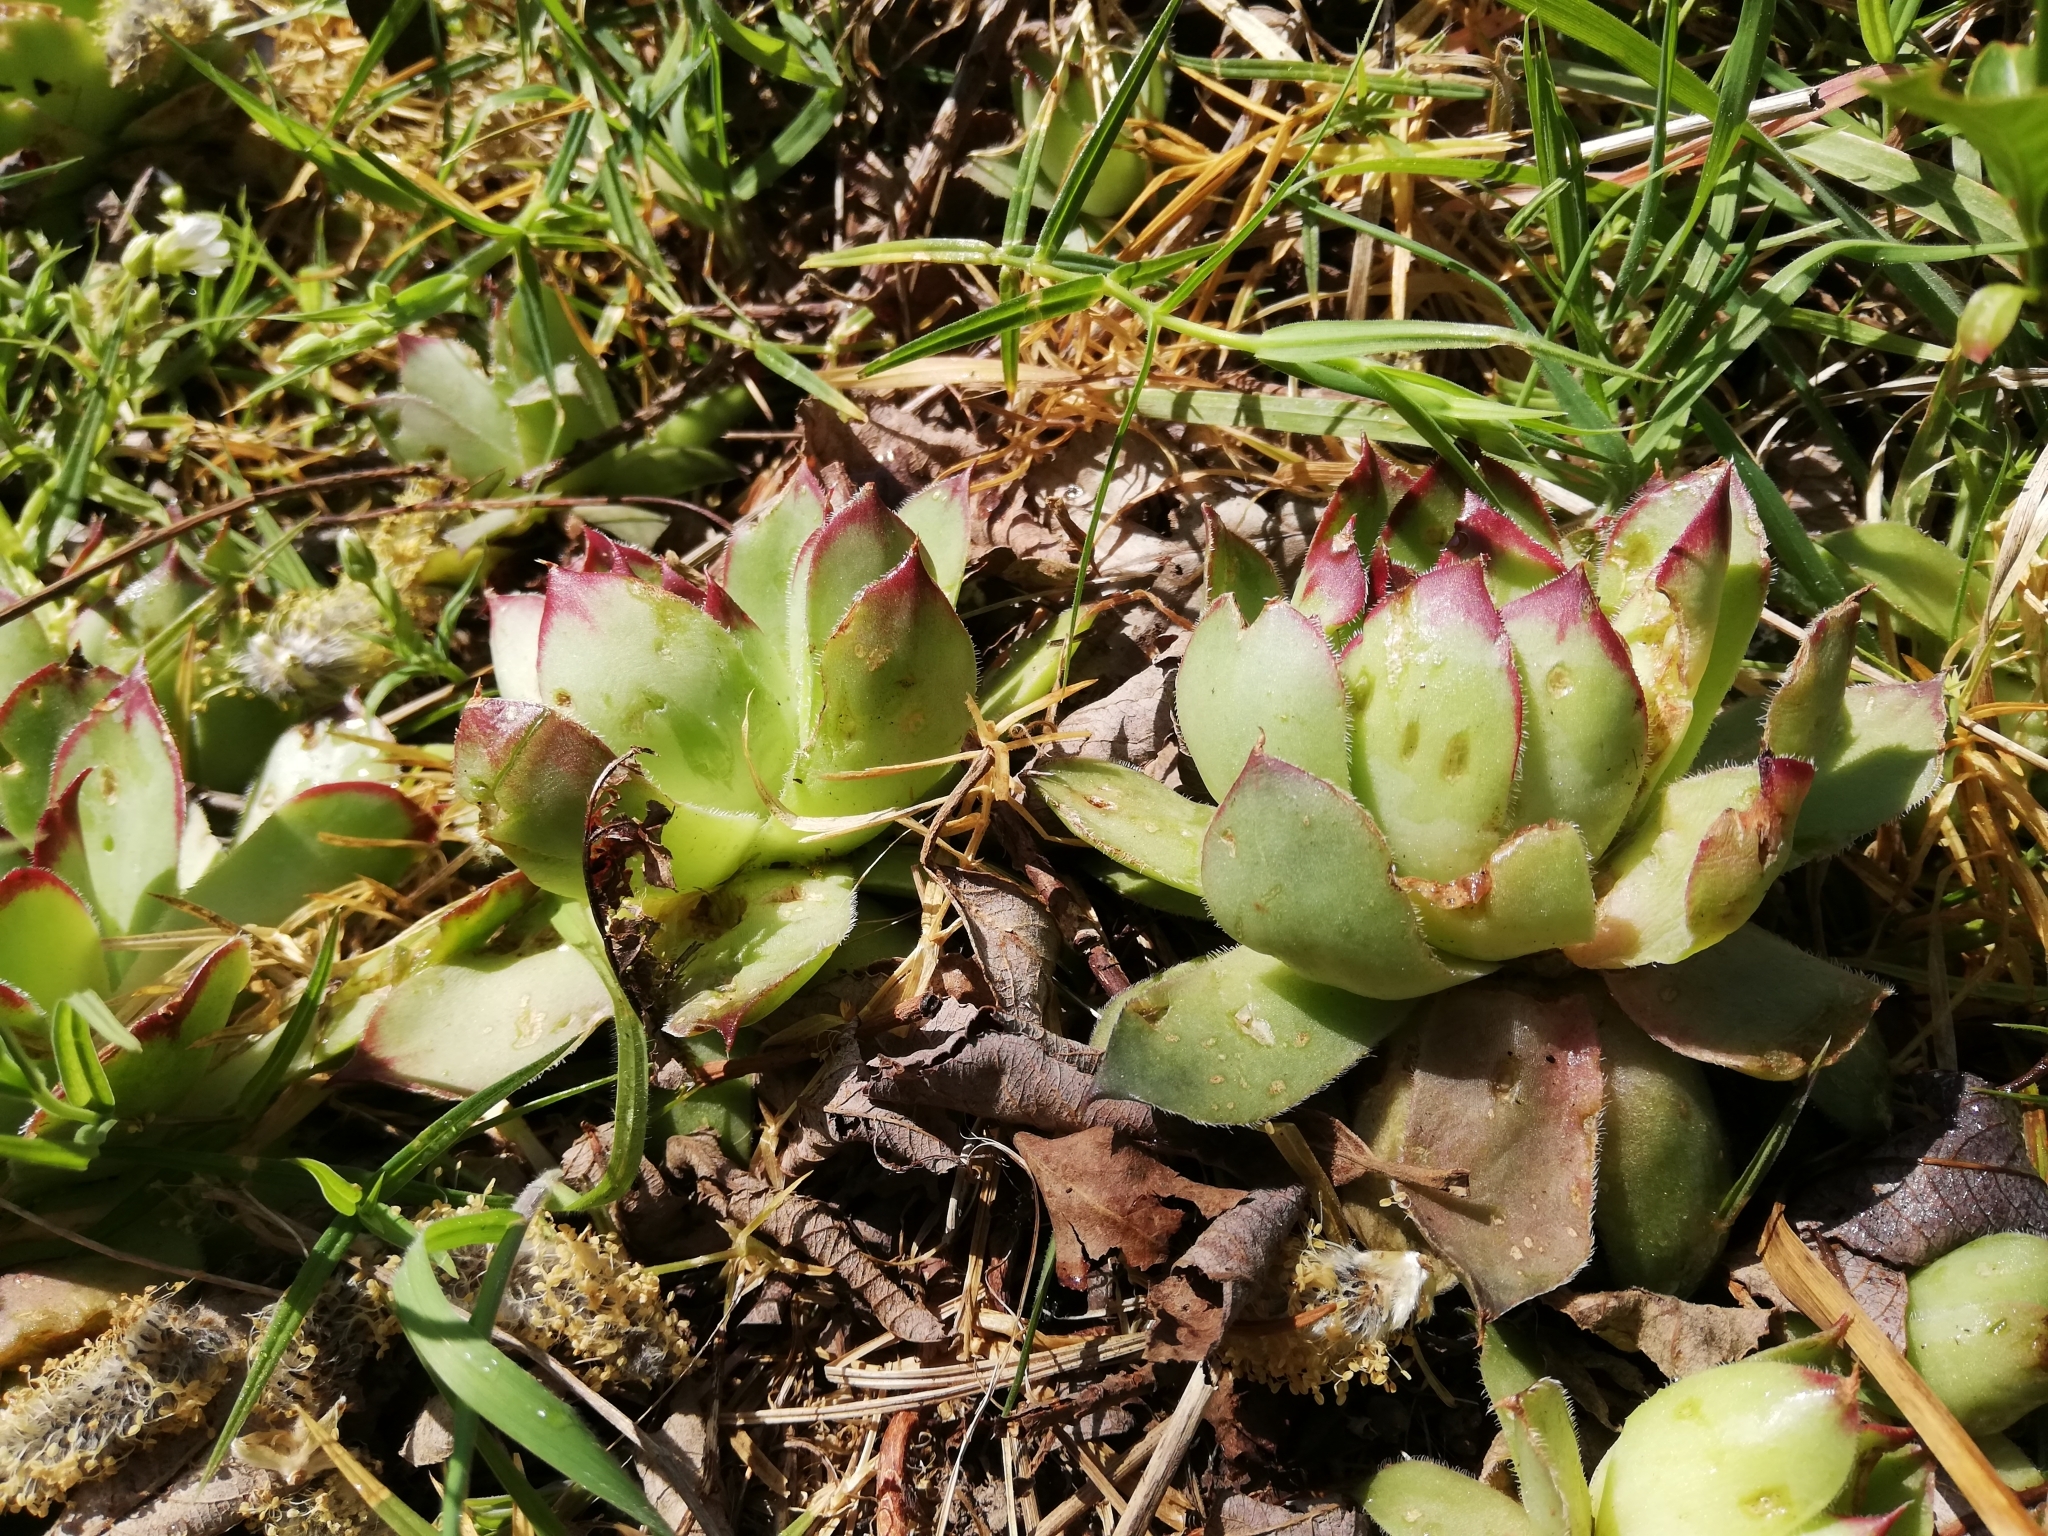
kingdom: Plantae
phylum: Tracheophyta
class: Magnoliopsida
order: Saxifragales
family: Crassulaceae
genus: Sempervivum
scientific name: Sempervivum tectorum
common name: House-leek
